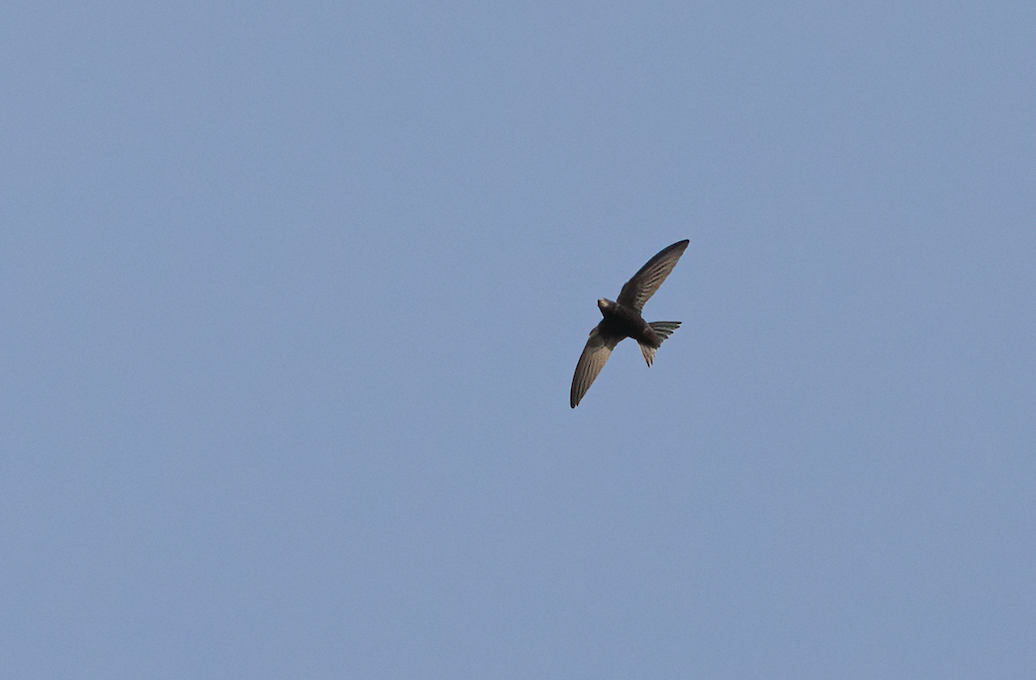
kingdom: Animalia
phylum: Chordata
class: Aves
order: Apodiformes
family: Apodidae
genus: Apus
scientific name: Apus apus
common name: Common swift
